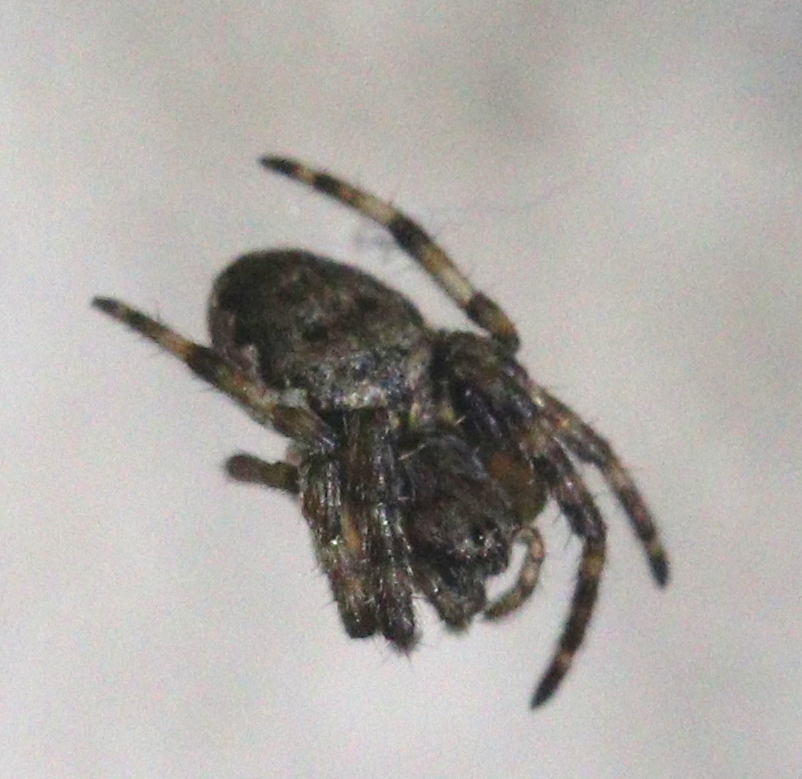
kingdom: Animalia
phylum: Arthropoda
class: Arachnida
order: Araneae
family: Araneidae
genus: Nuctenea
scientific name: Nuctenea umbratica
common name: Toad spider
